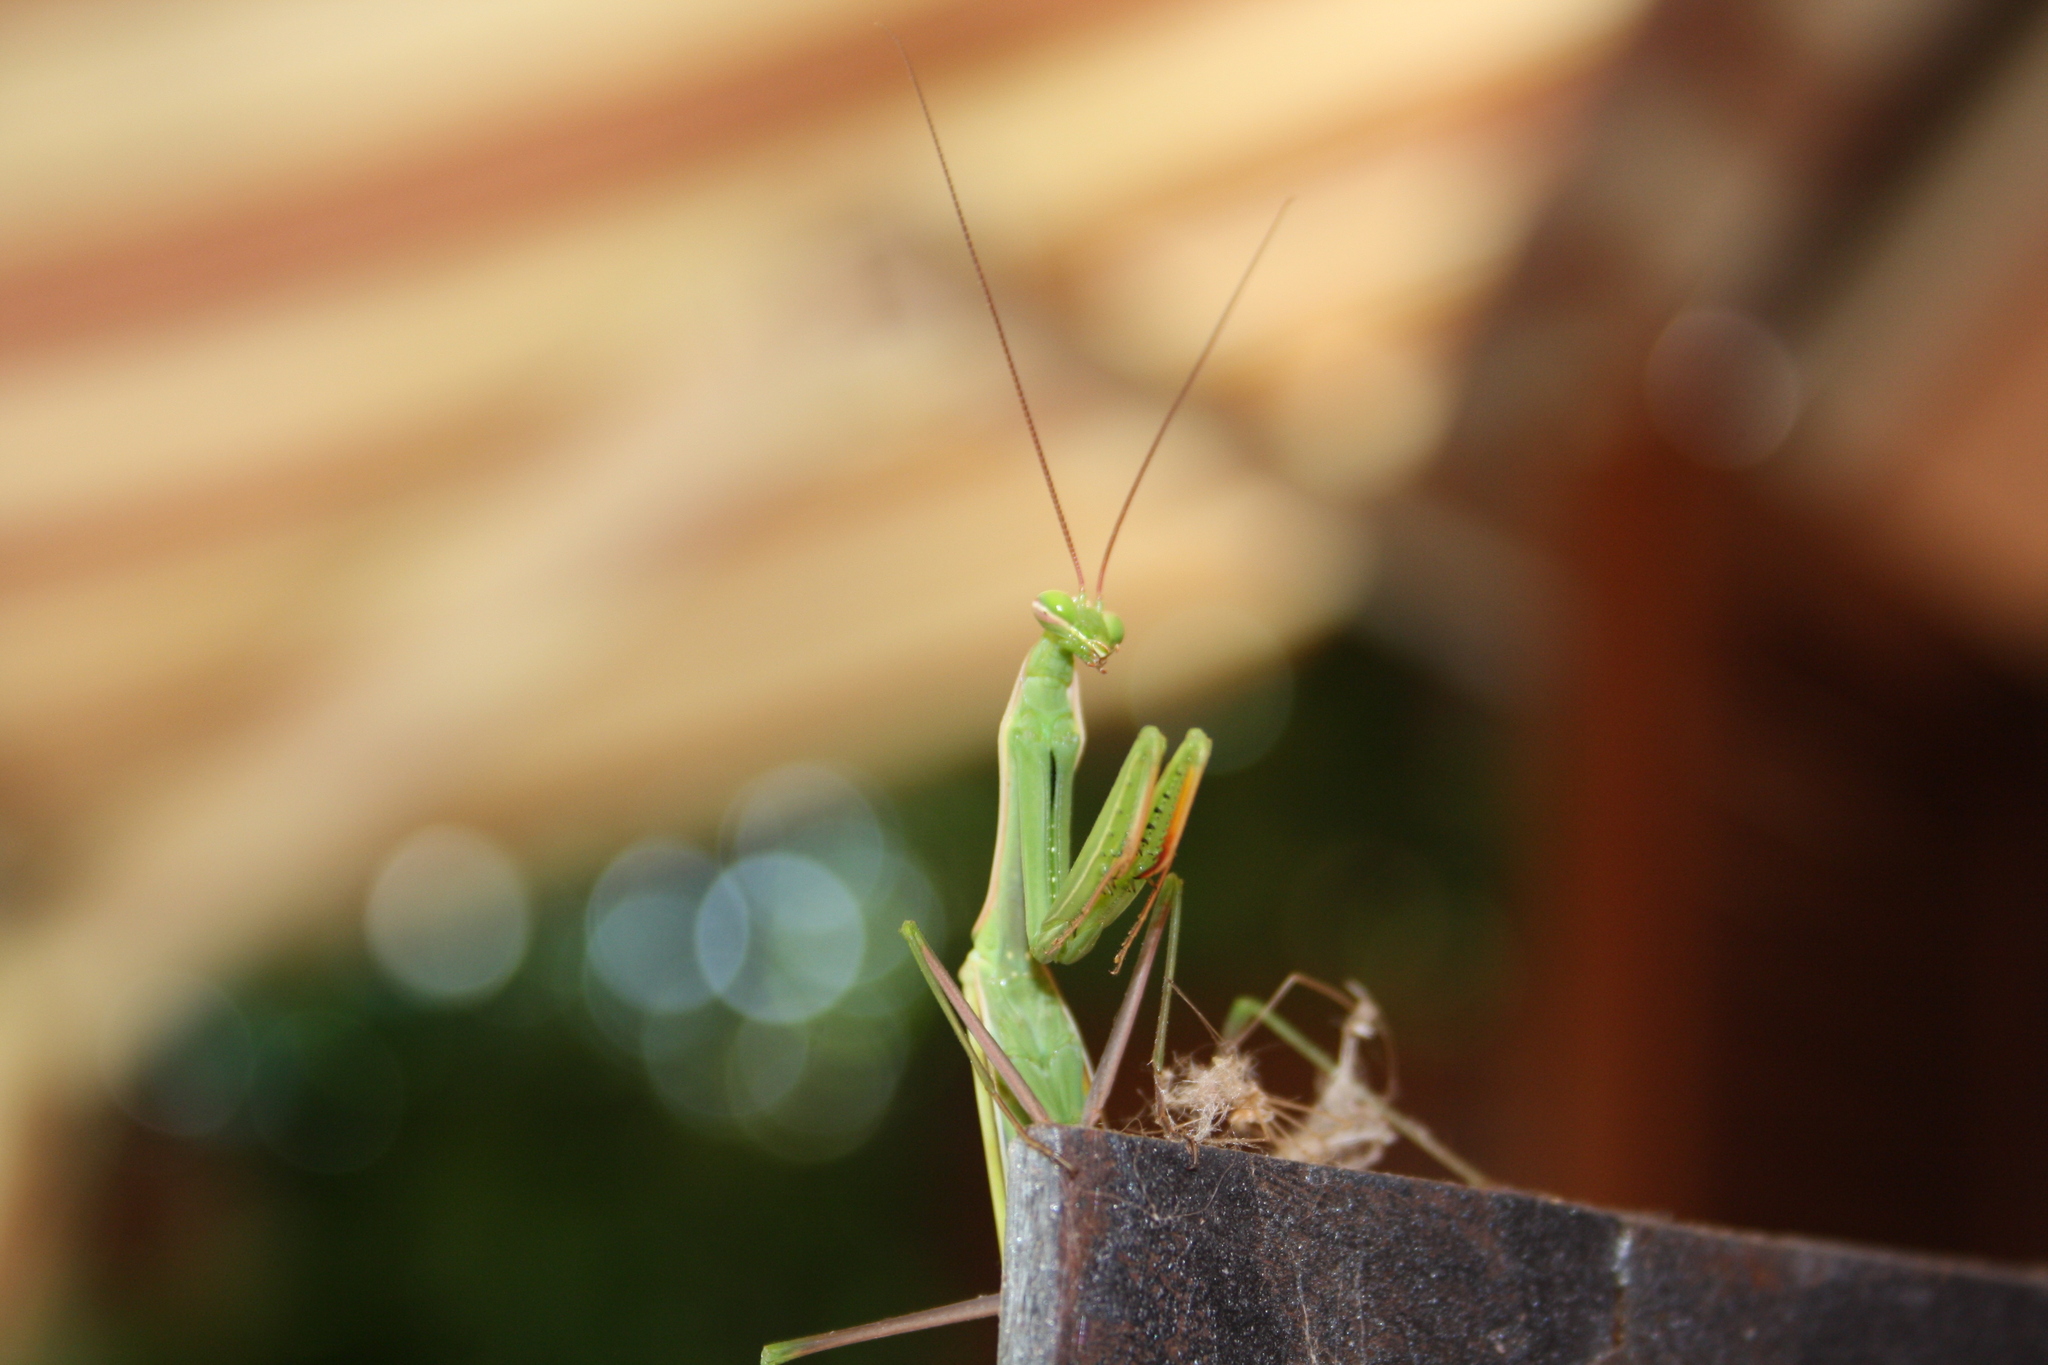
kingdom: Animalia
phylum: Arthropoda
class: Insecta
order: Mantodea
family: Mantidae
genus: Mantis
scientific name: Mantis religiosa
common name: Praying mantis
